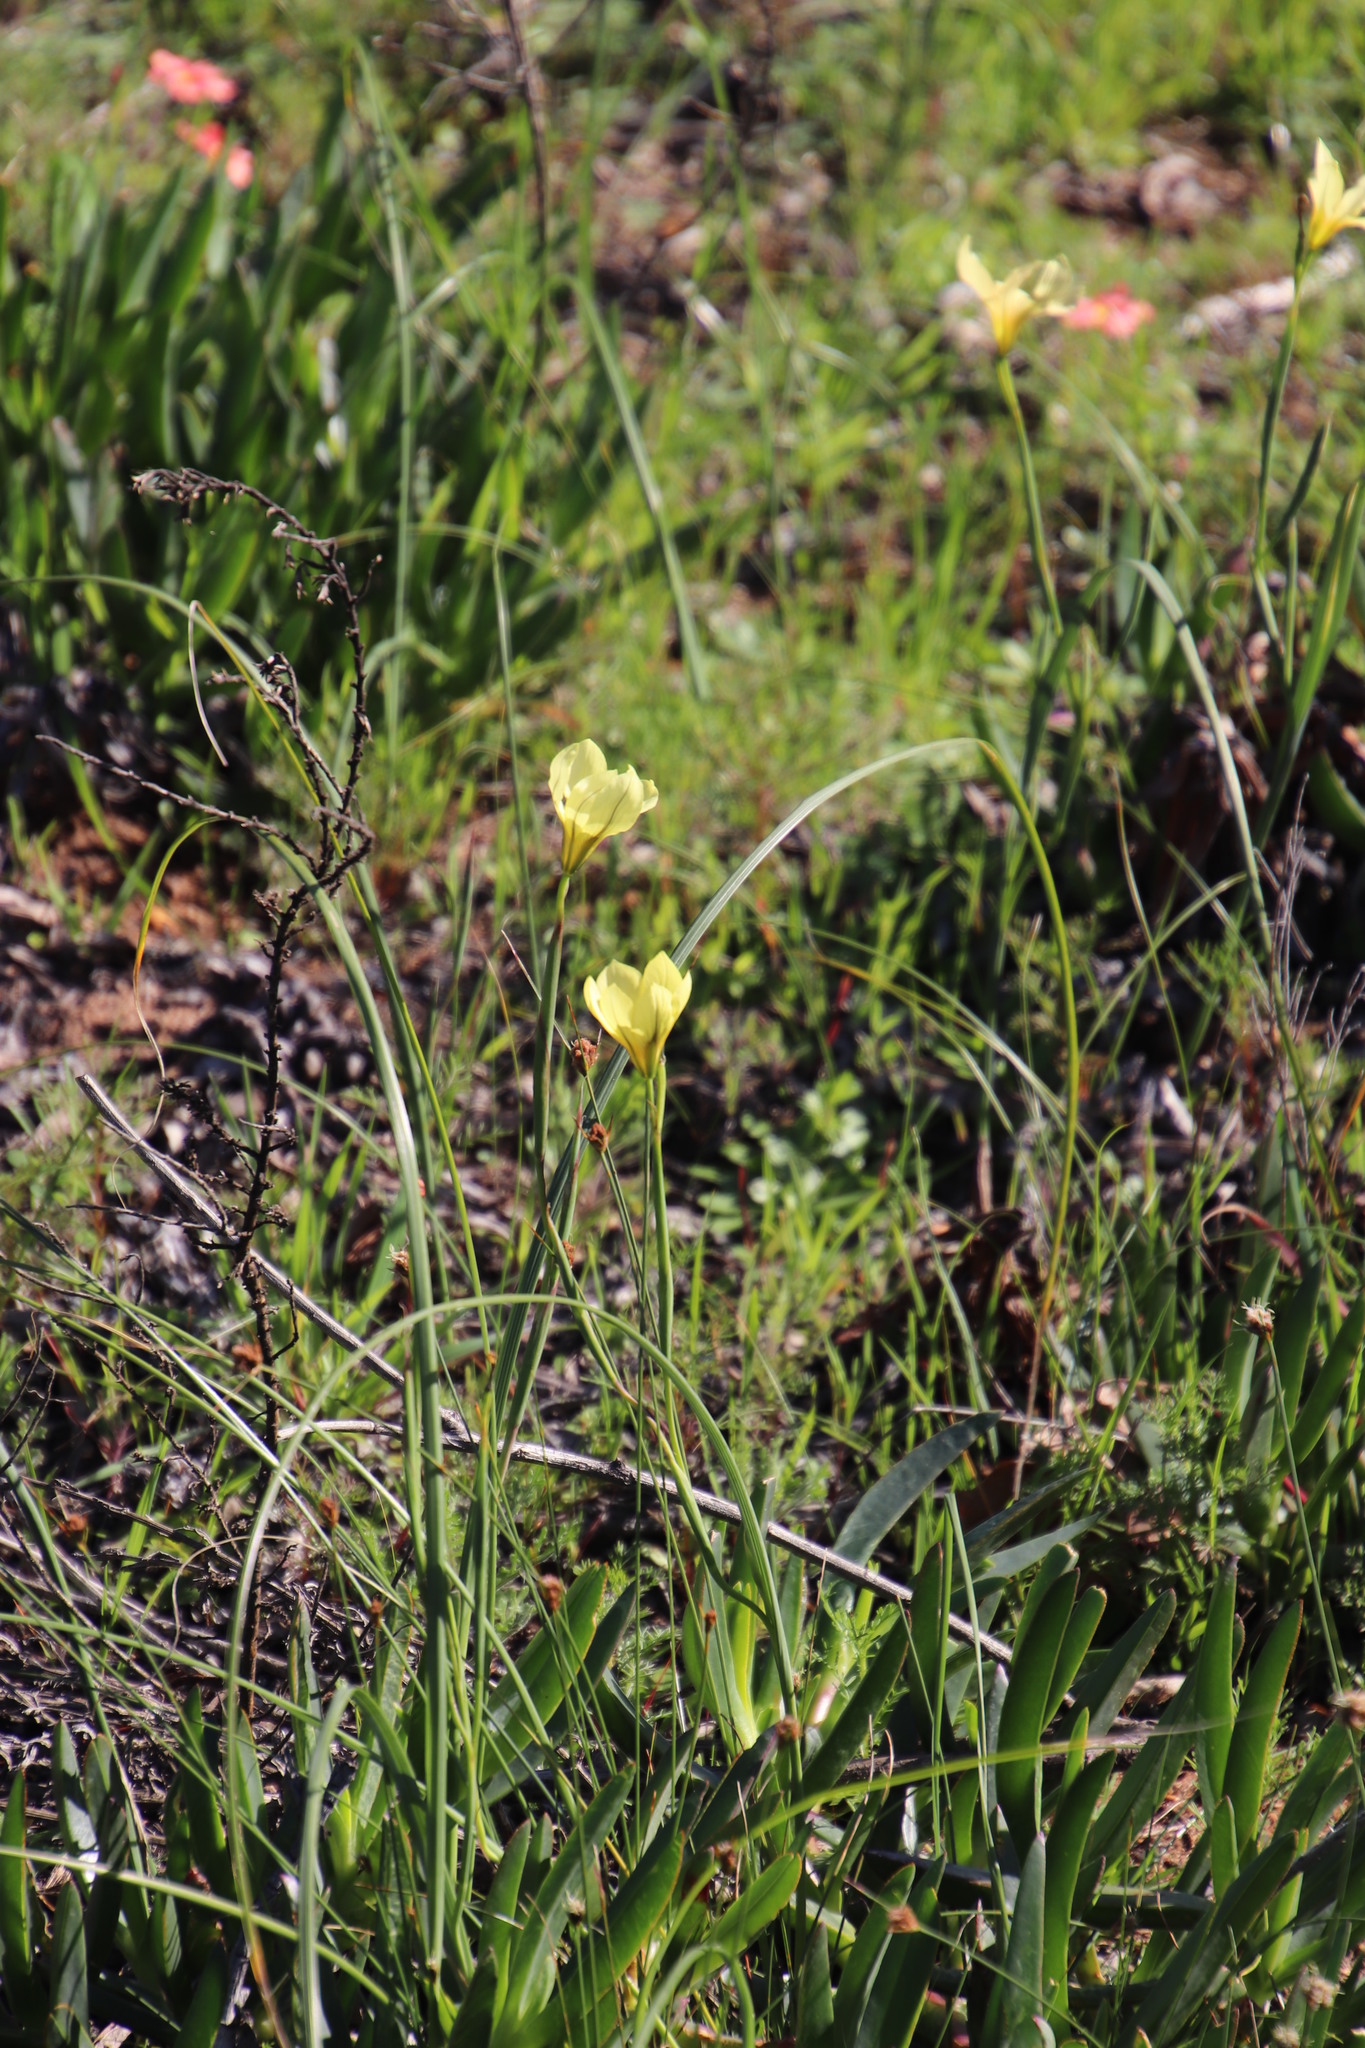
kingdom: Plantae
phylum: Tracheophyta
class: Liliopsida
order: Asparagales
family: Iridaceae
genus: Moraea
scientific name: Moraea collina
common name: Cape-tulip
